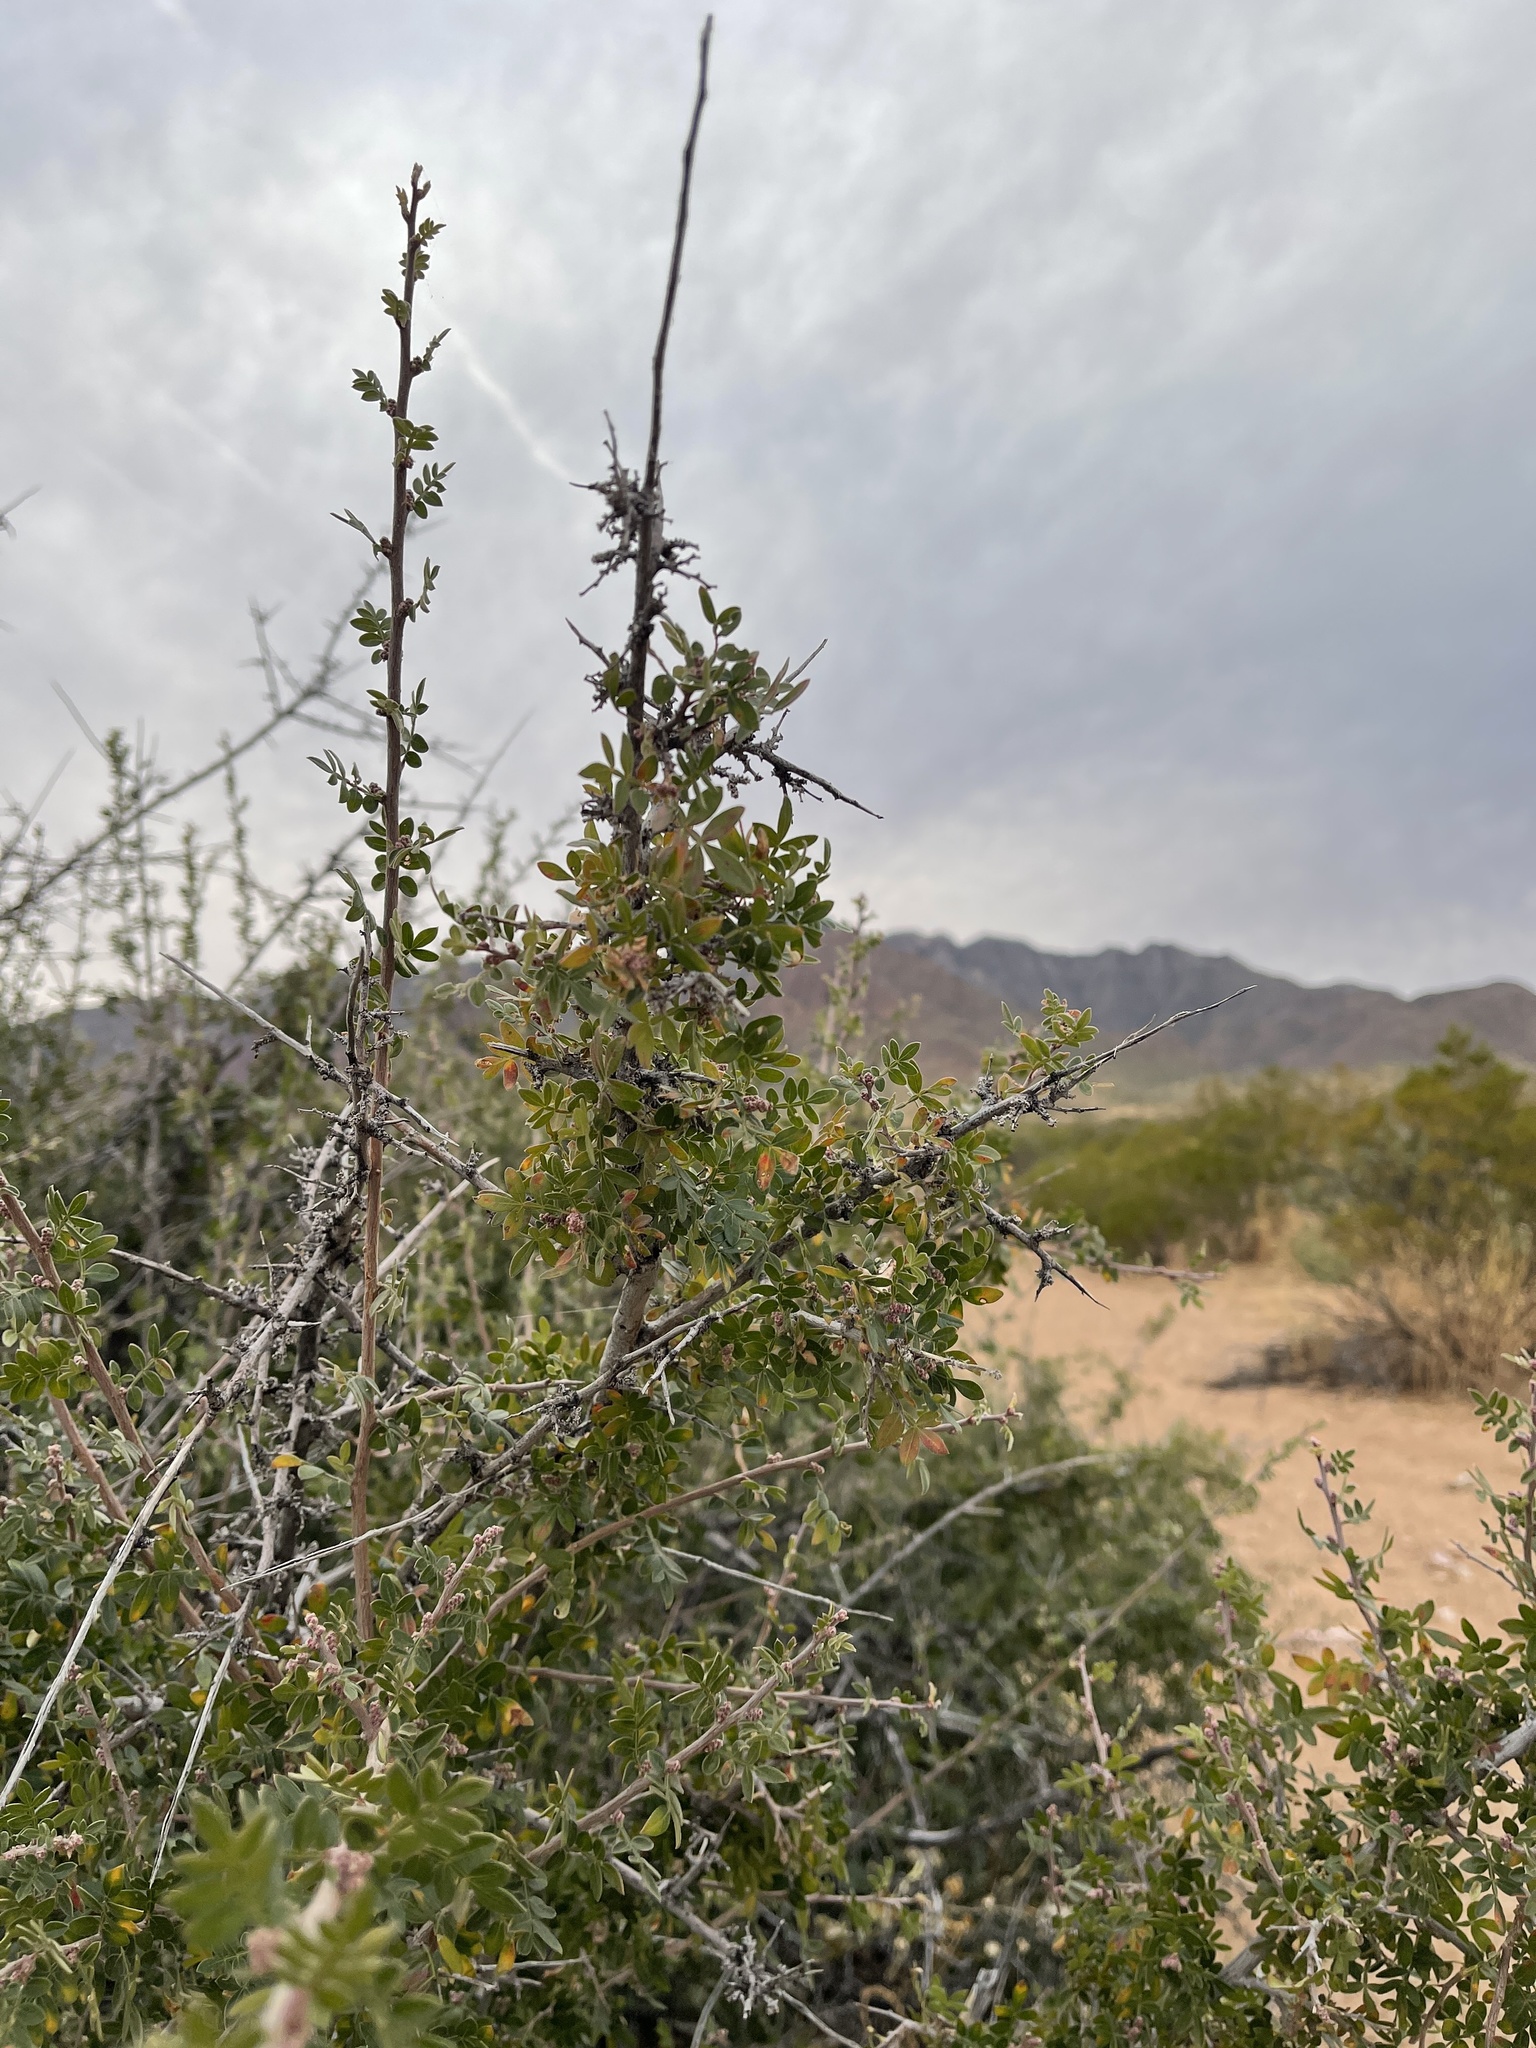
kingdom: Plantae
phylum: Tracheophyta
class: Magnoliopsida
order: Sapindales
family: Anacardiaceae
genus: Rhus
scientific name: Rhus microphylla
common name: Desert sumac
